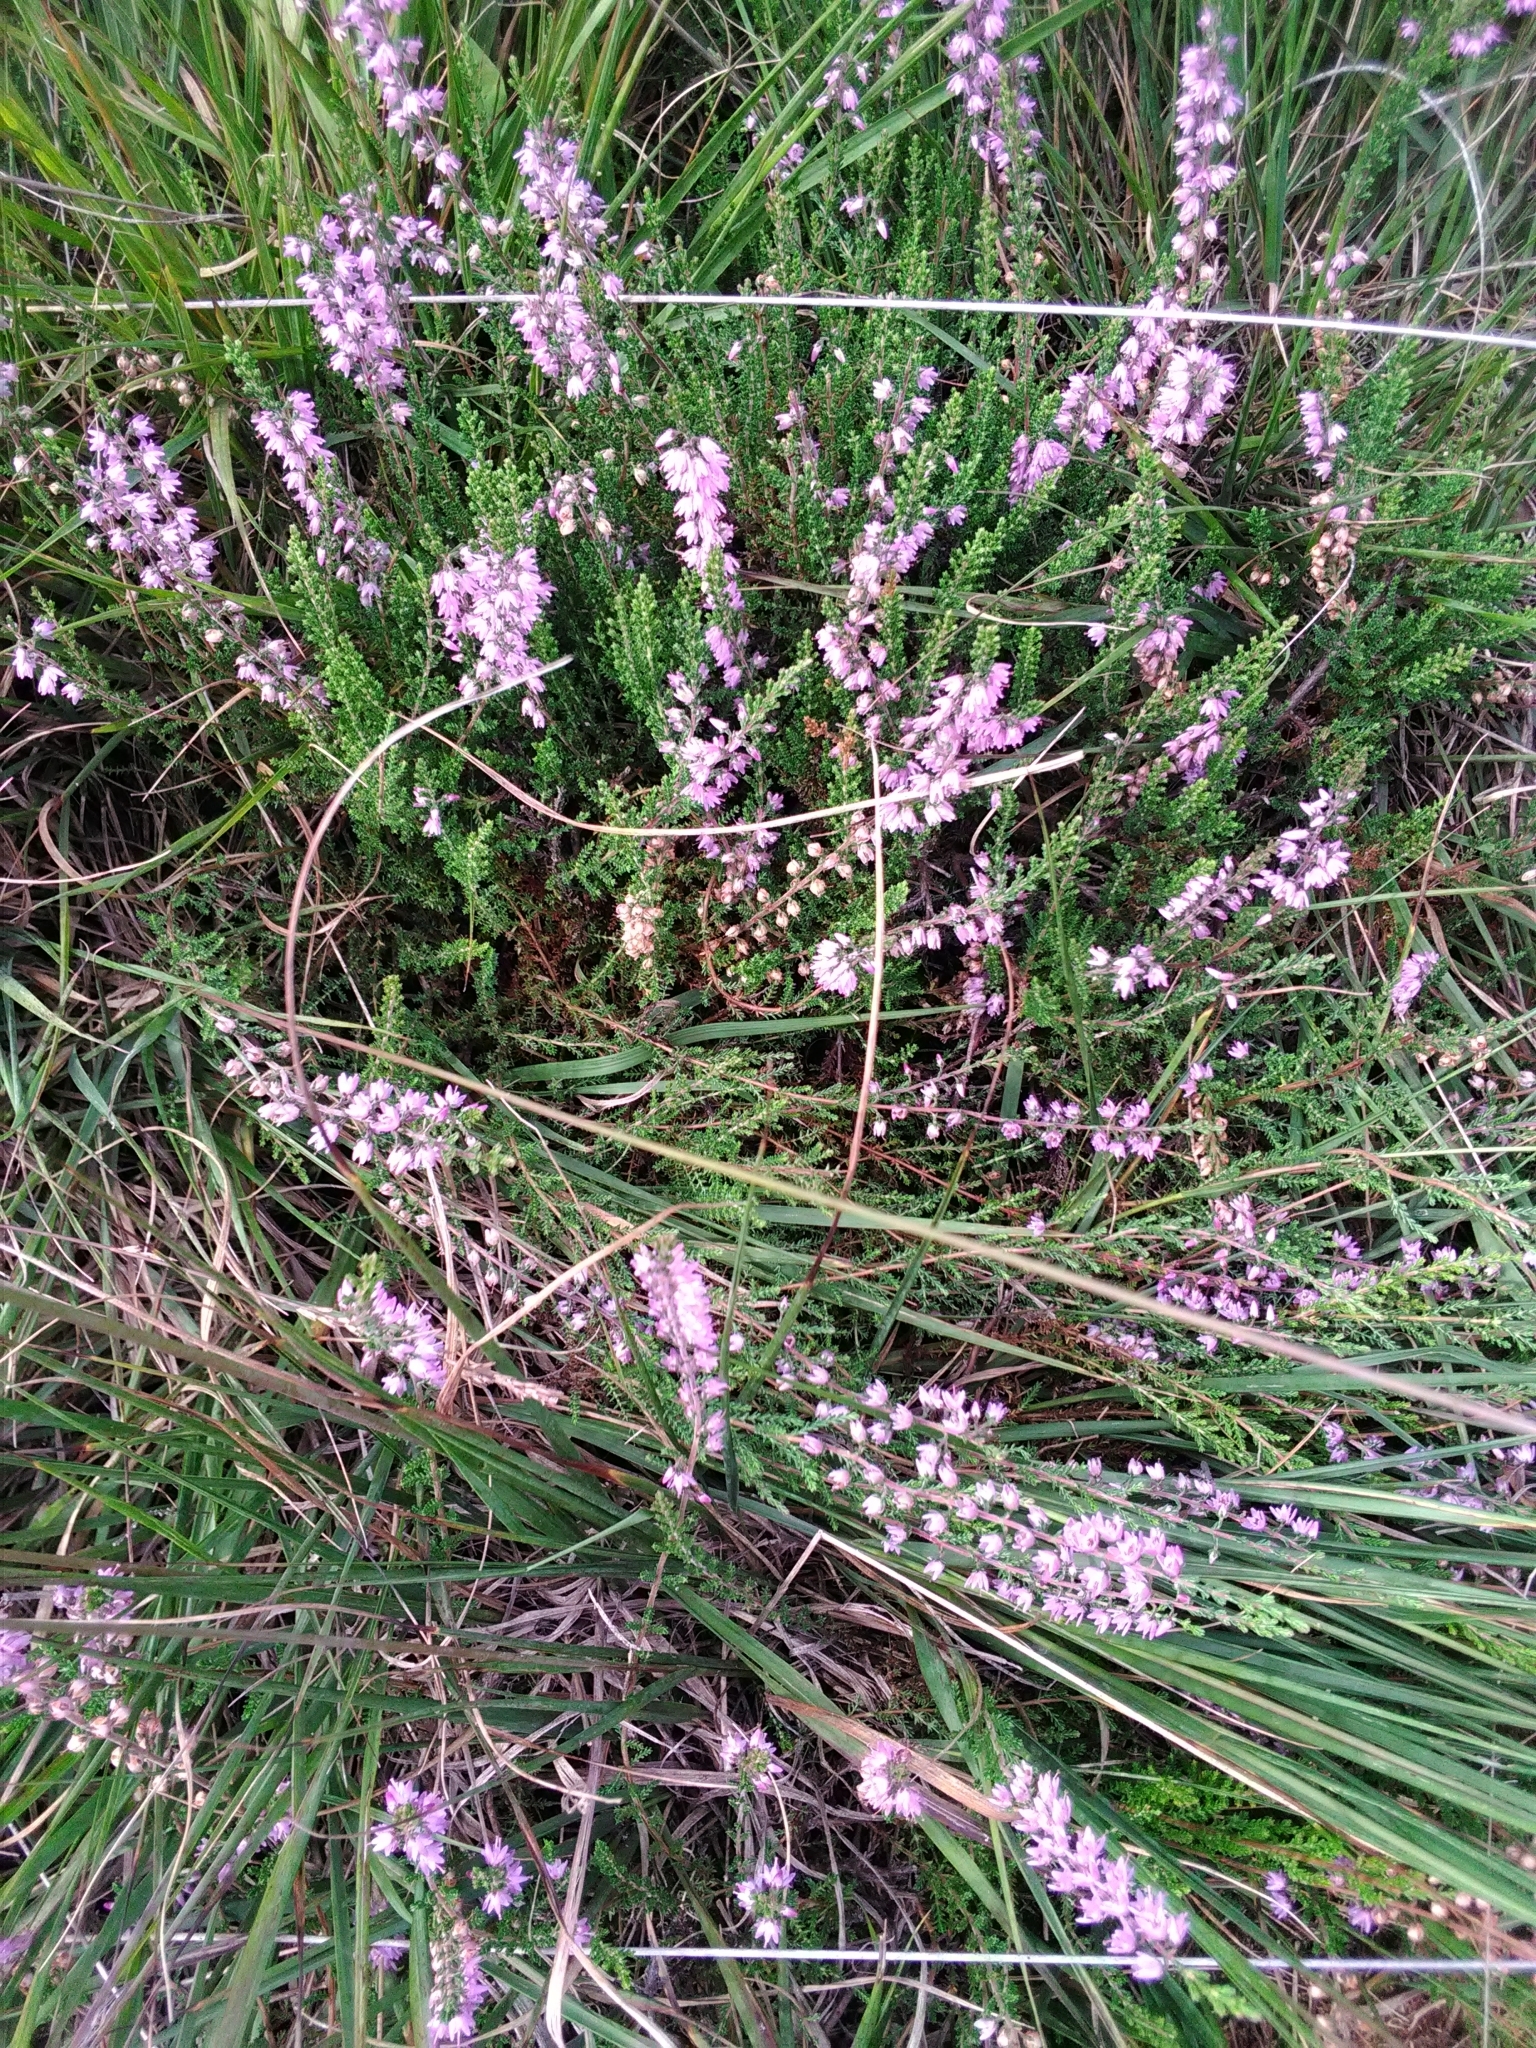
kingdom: Plantae
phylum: Tracheophyta
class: Magnoliopsida
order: Ericales
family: Ericaceae
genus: Calluna
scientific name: Calluna vulgaris
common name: Heather
